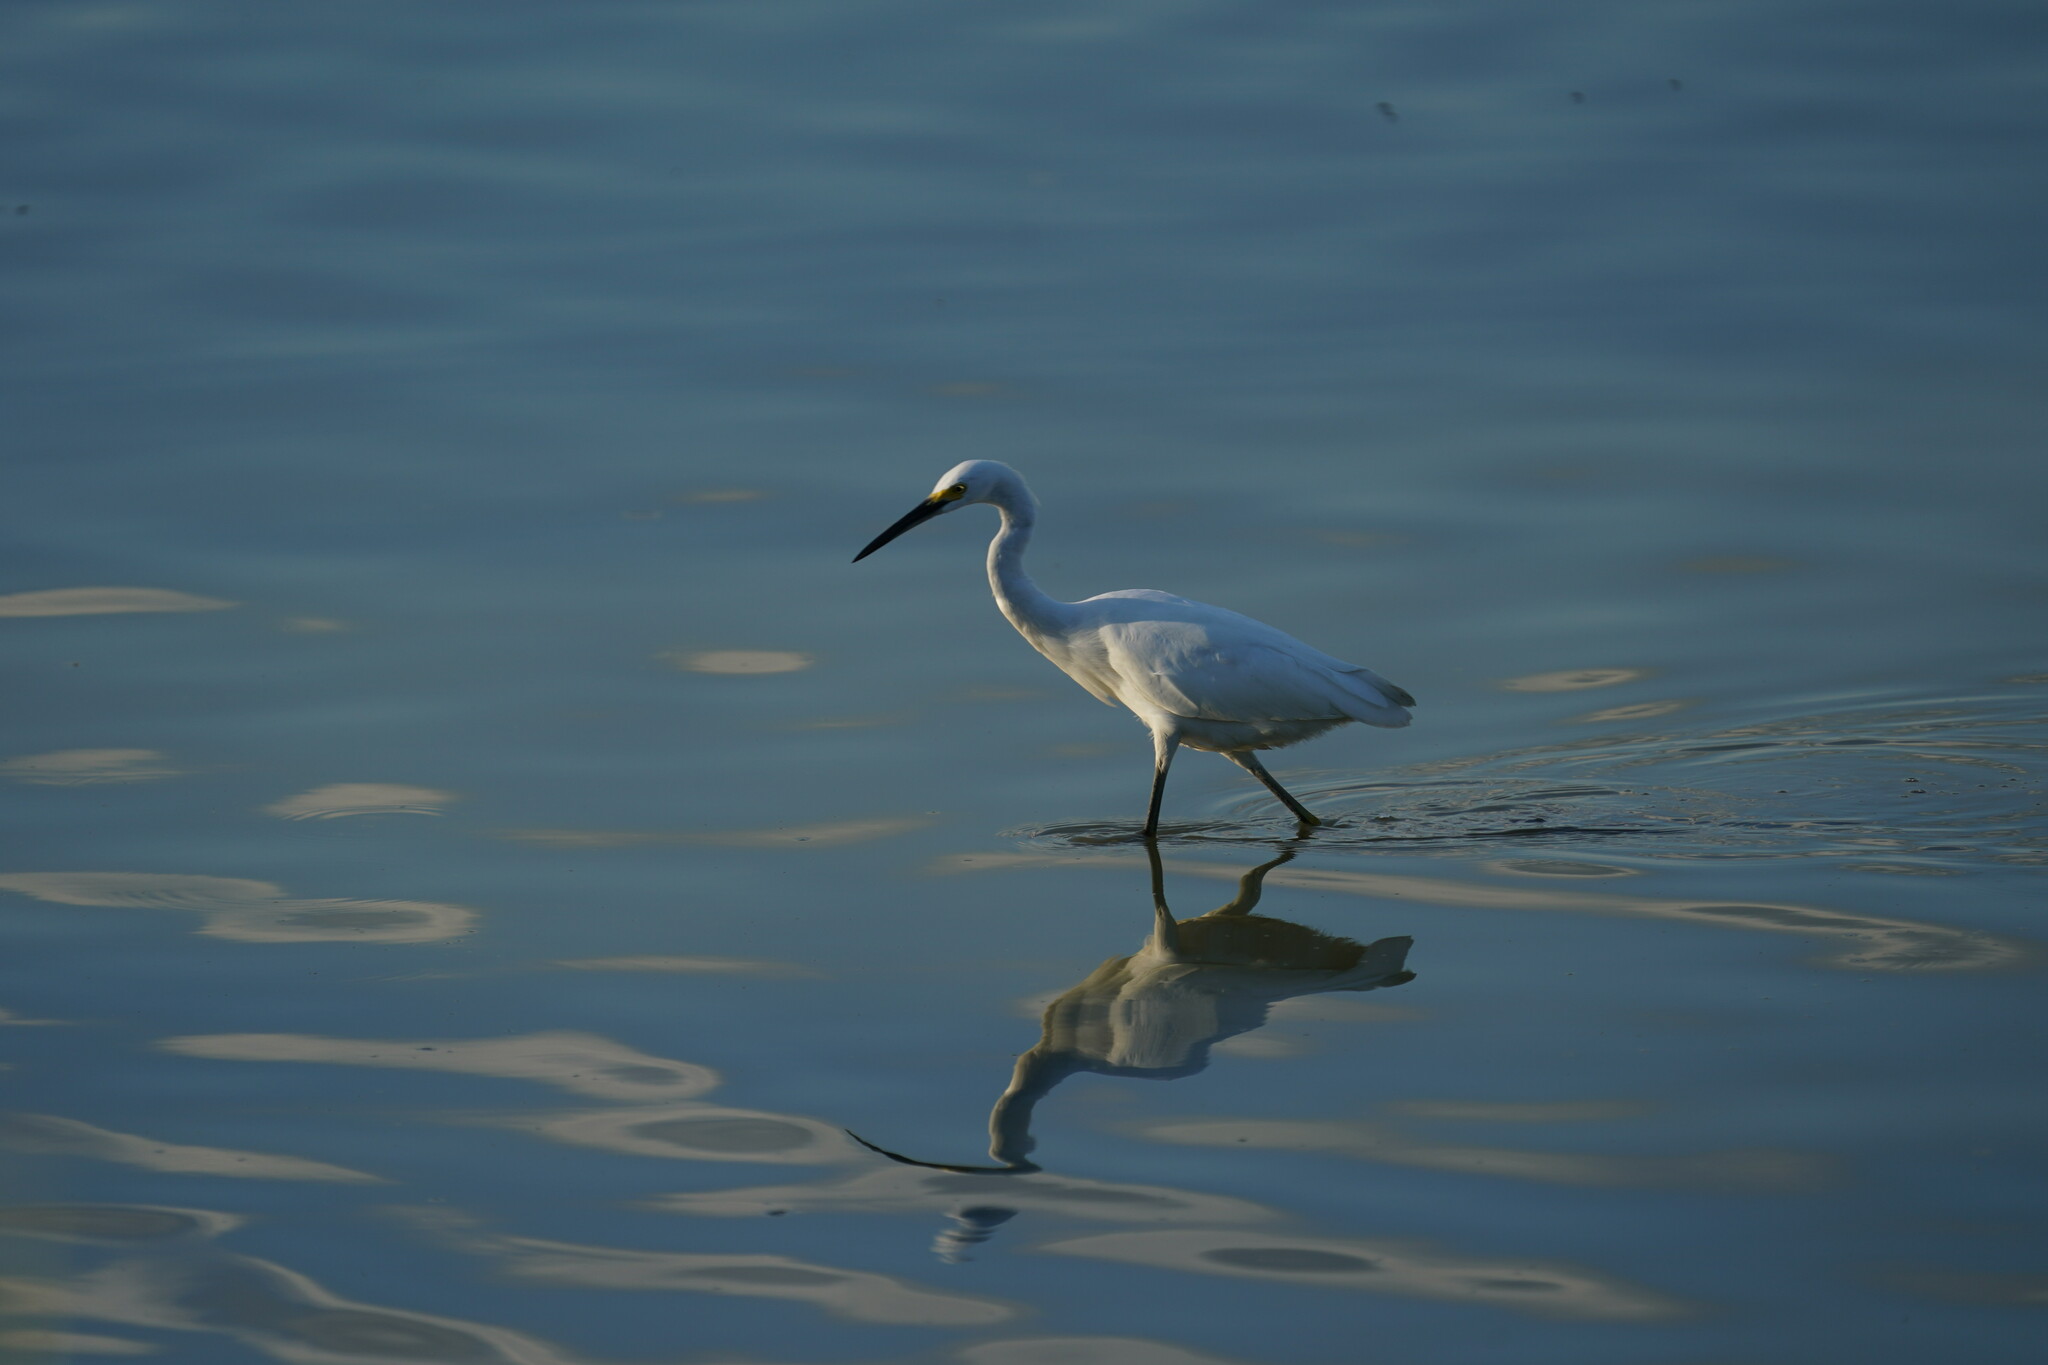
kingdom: Animalia
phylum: Chordata
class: Aves
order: Pelecaniformes
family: Ardeidae
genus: Egretta
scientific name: Egretta thula
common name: Snowy egret
